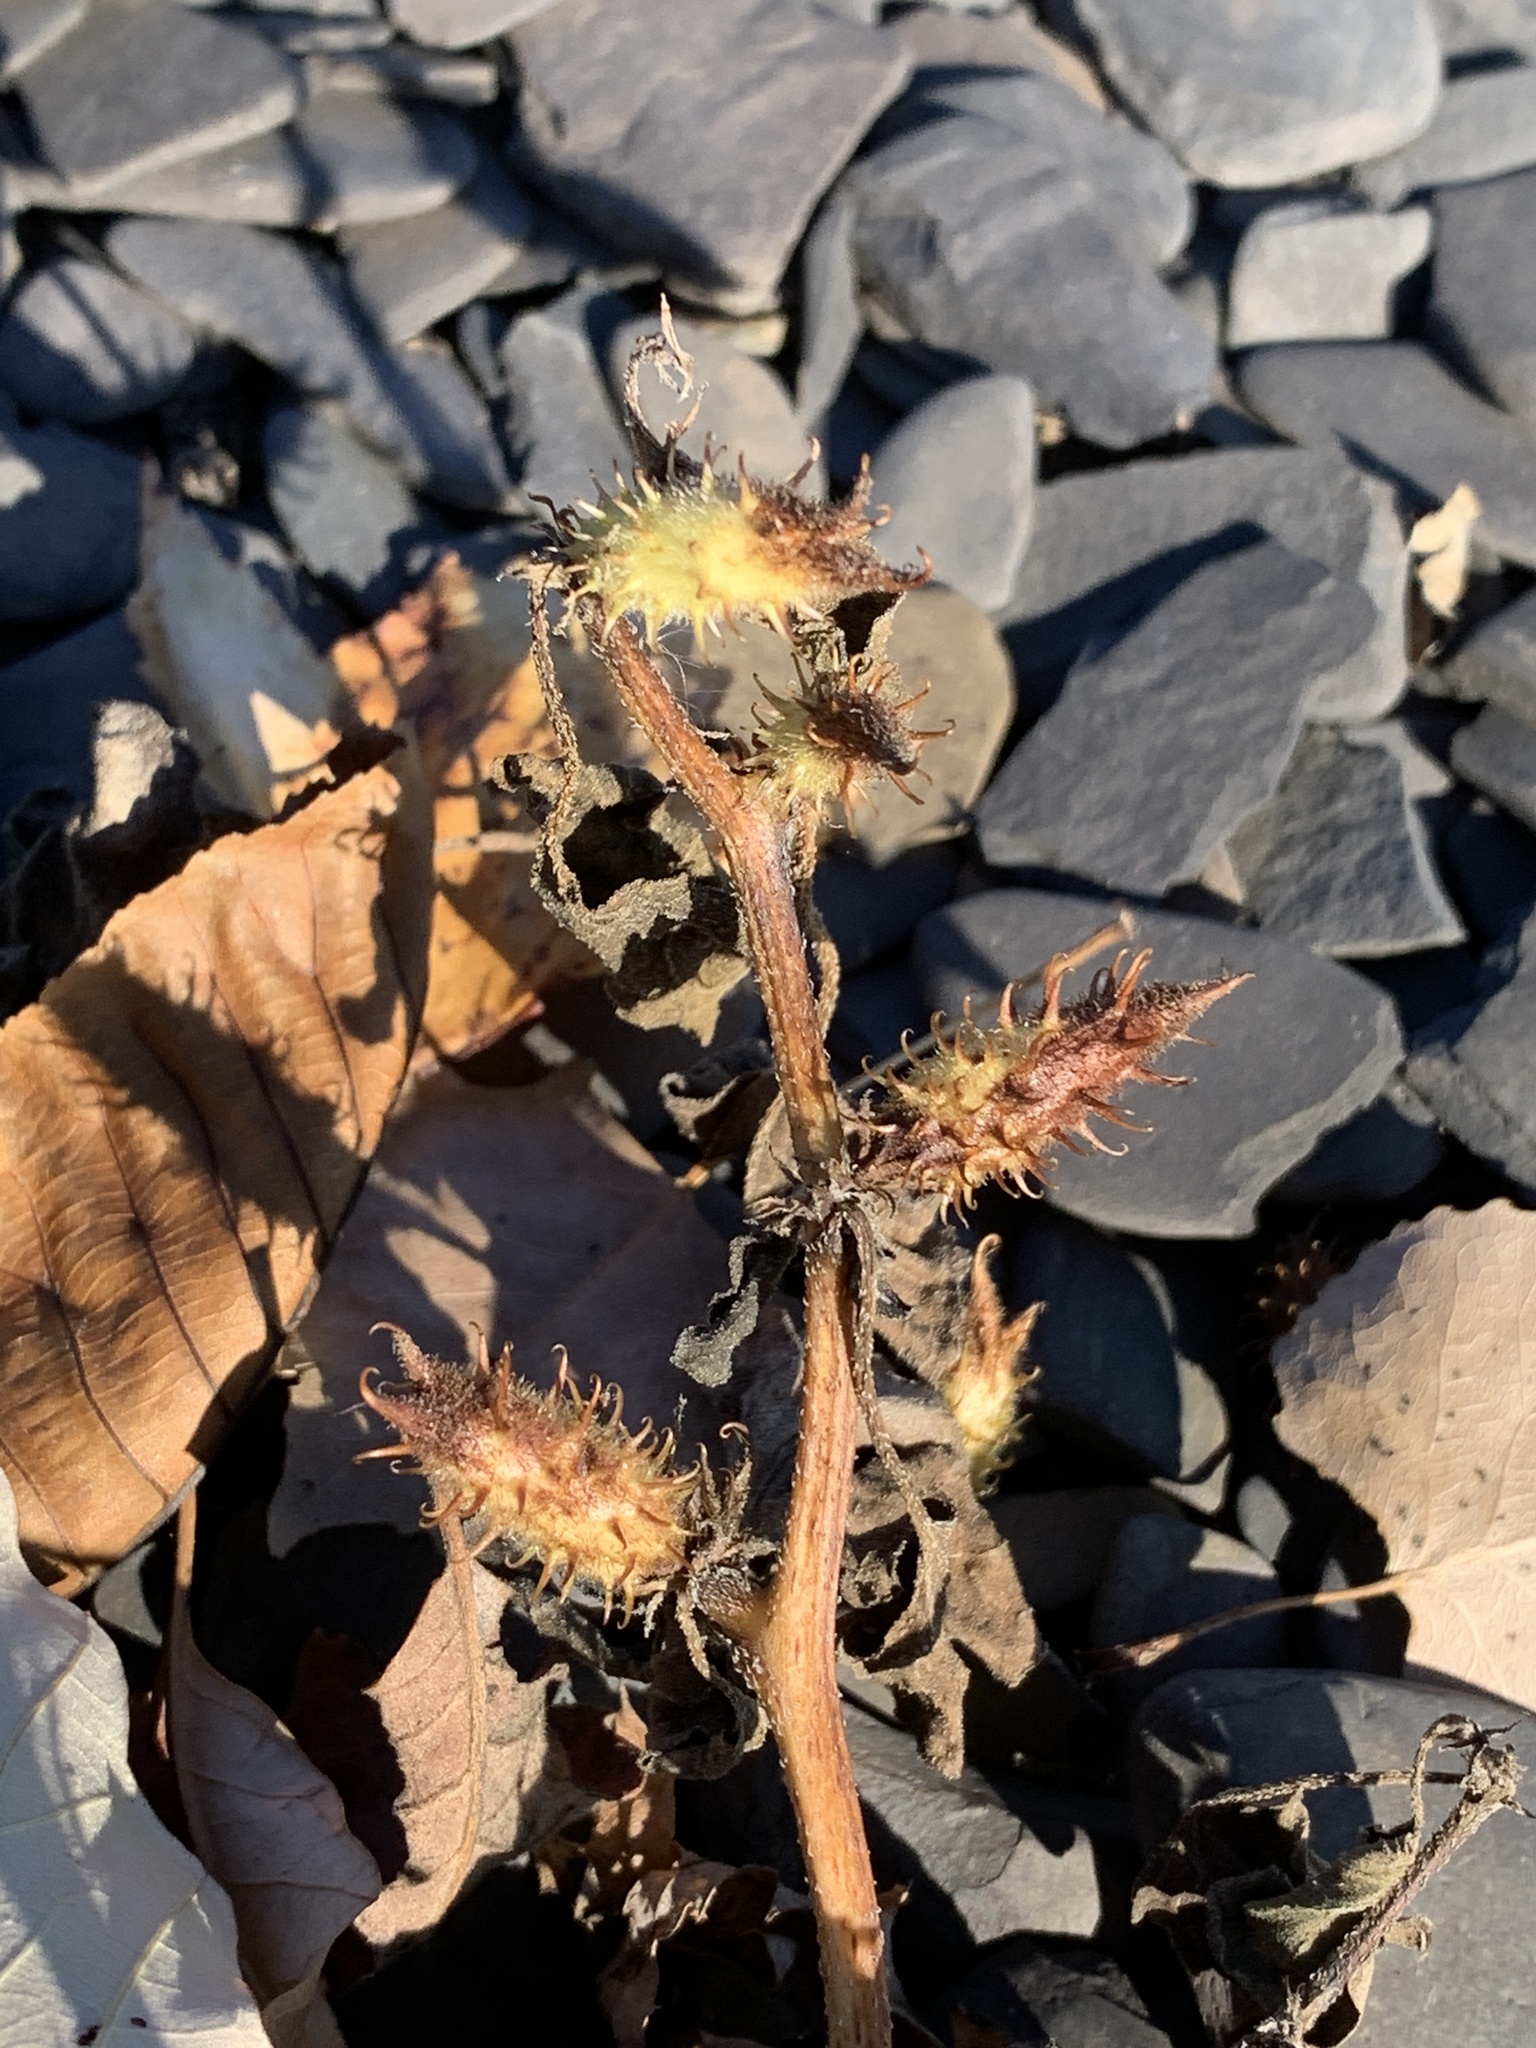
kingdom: Plantae
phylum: Tracheophyta
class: Magnoliopsida
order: Asterales
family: Asteraceae
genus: Xanthium
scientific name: Xanthium strumarium
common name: Rough cocklebur
